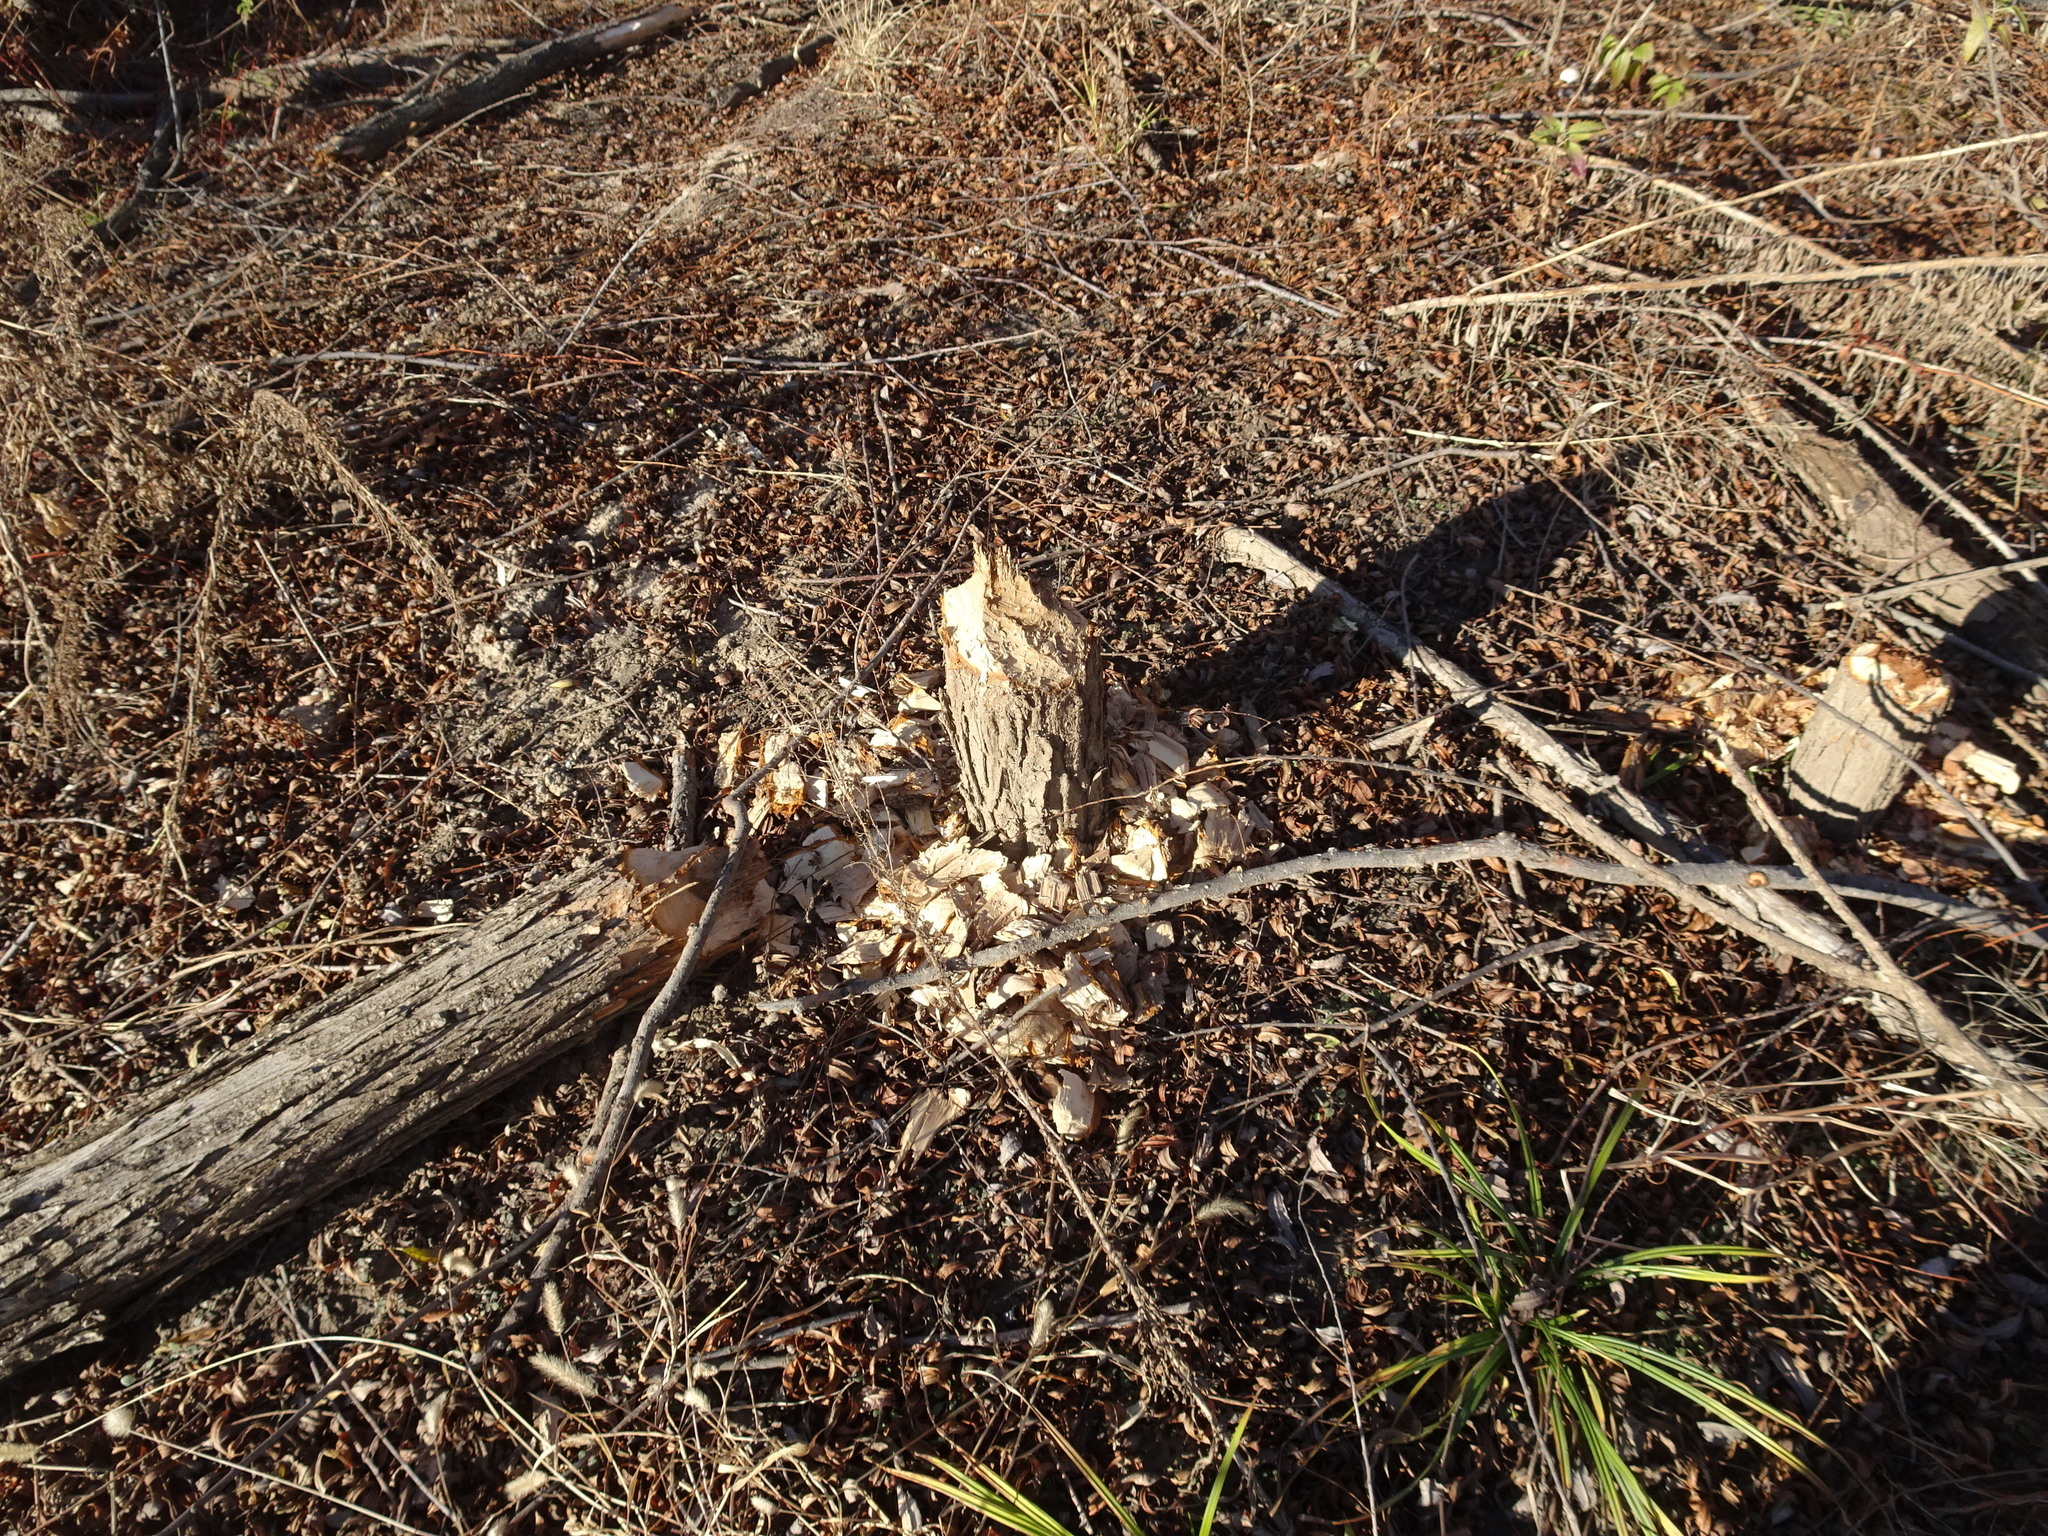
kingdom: Animalia
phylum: Chordata
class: Mammalia
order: Rodentia
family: Castoridae
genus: Castor
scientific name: Castor canadensis
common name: American beaver
